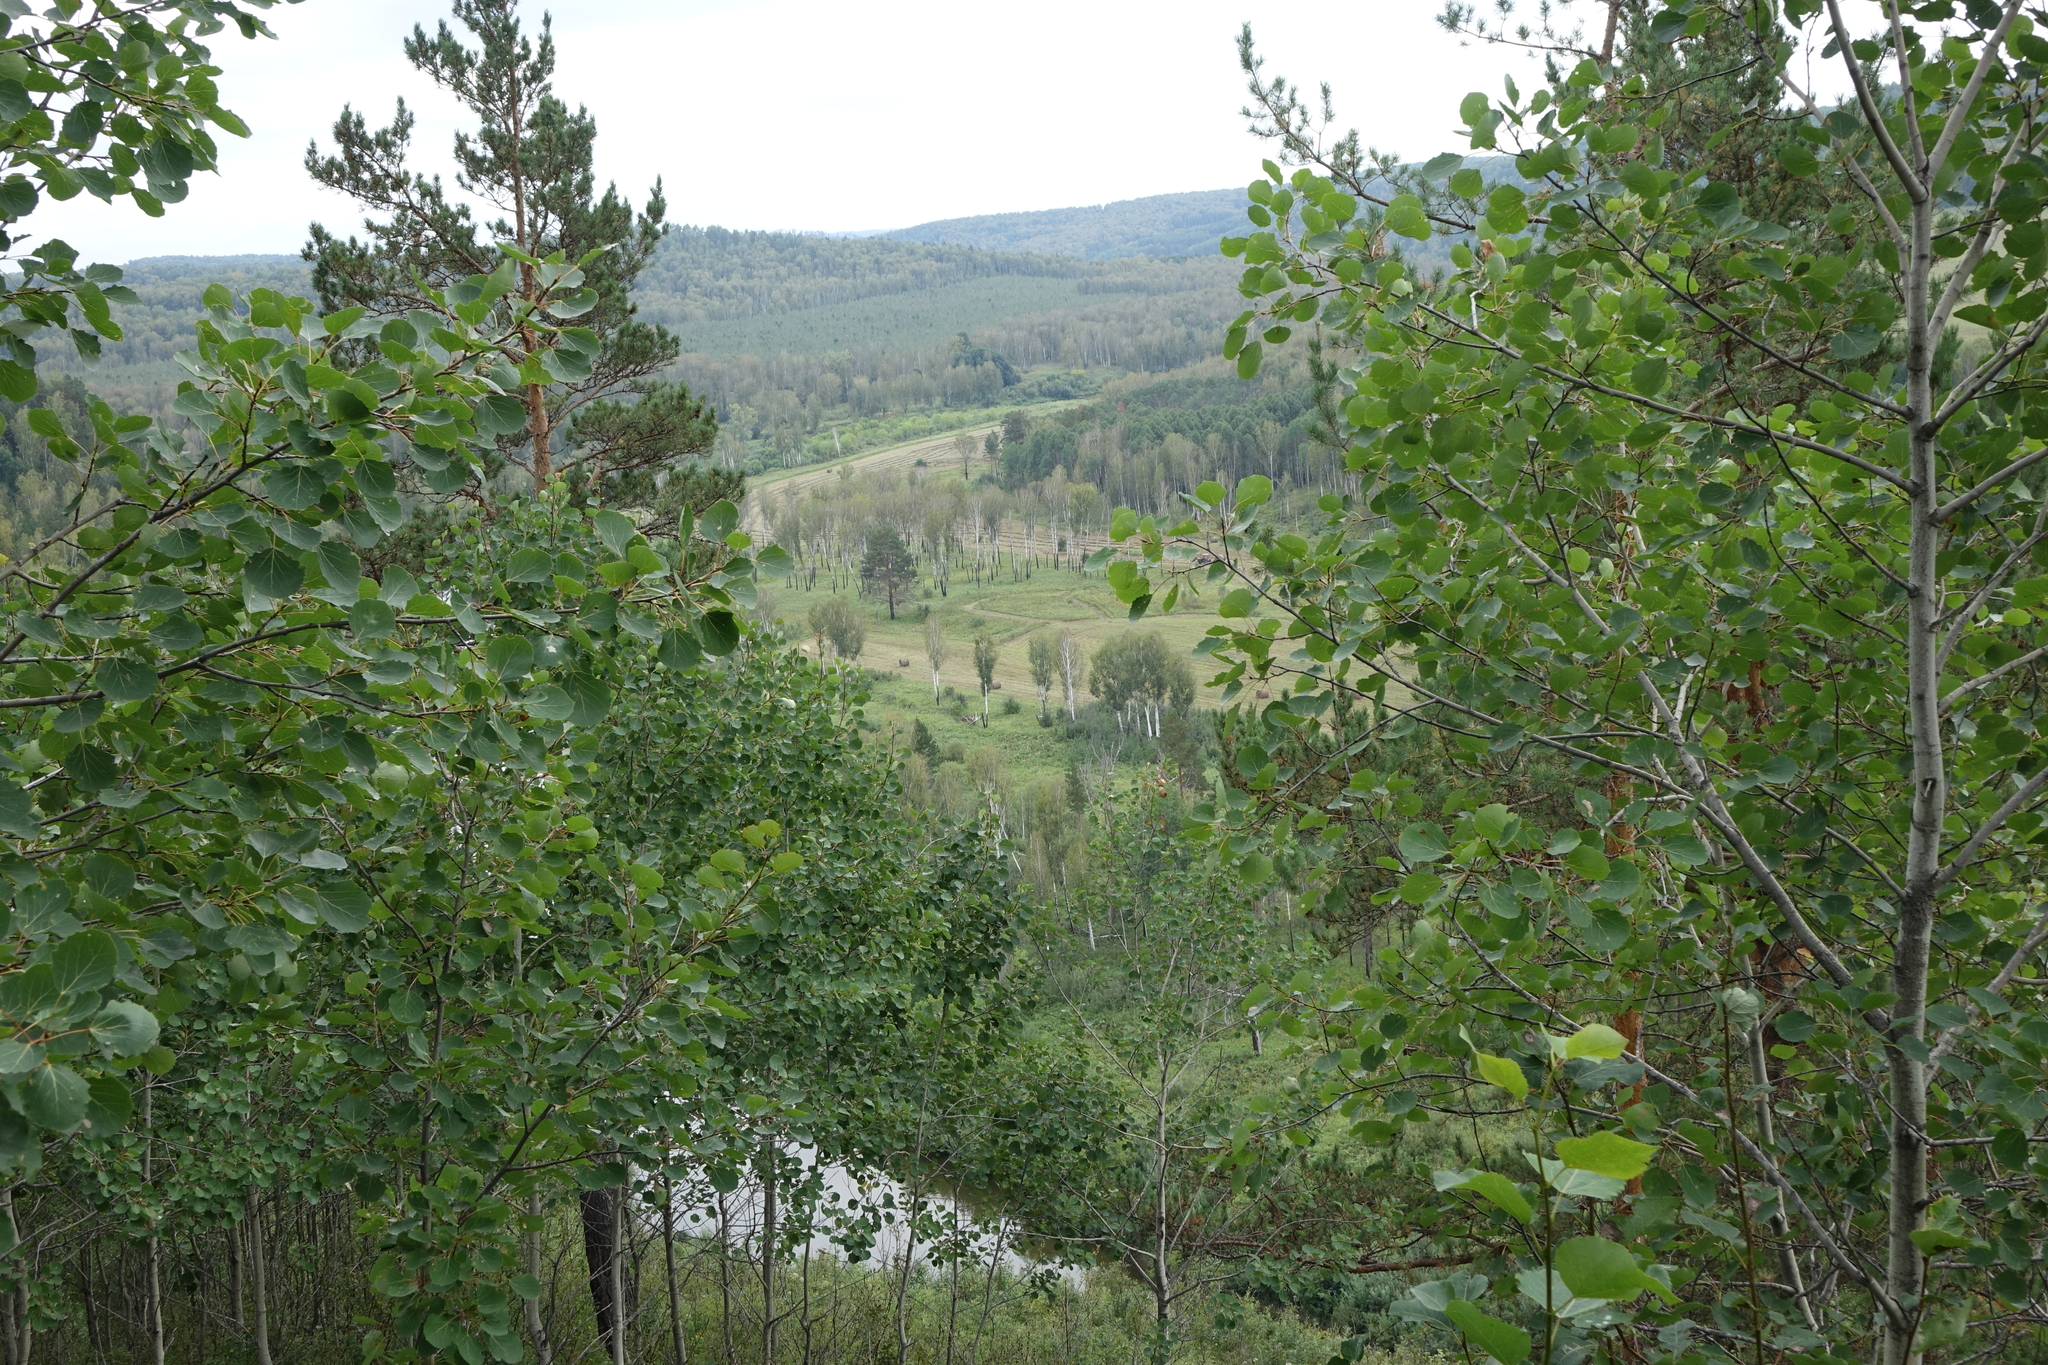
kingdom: Plantae
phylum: Tracheophyta
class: Magnoliopsida
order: Malpighiales
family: Salicaceae
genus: Populus
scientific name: Populus tremula
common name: European aspen
